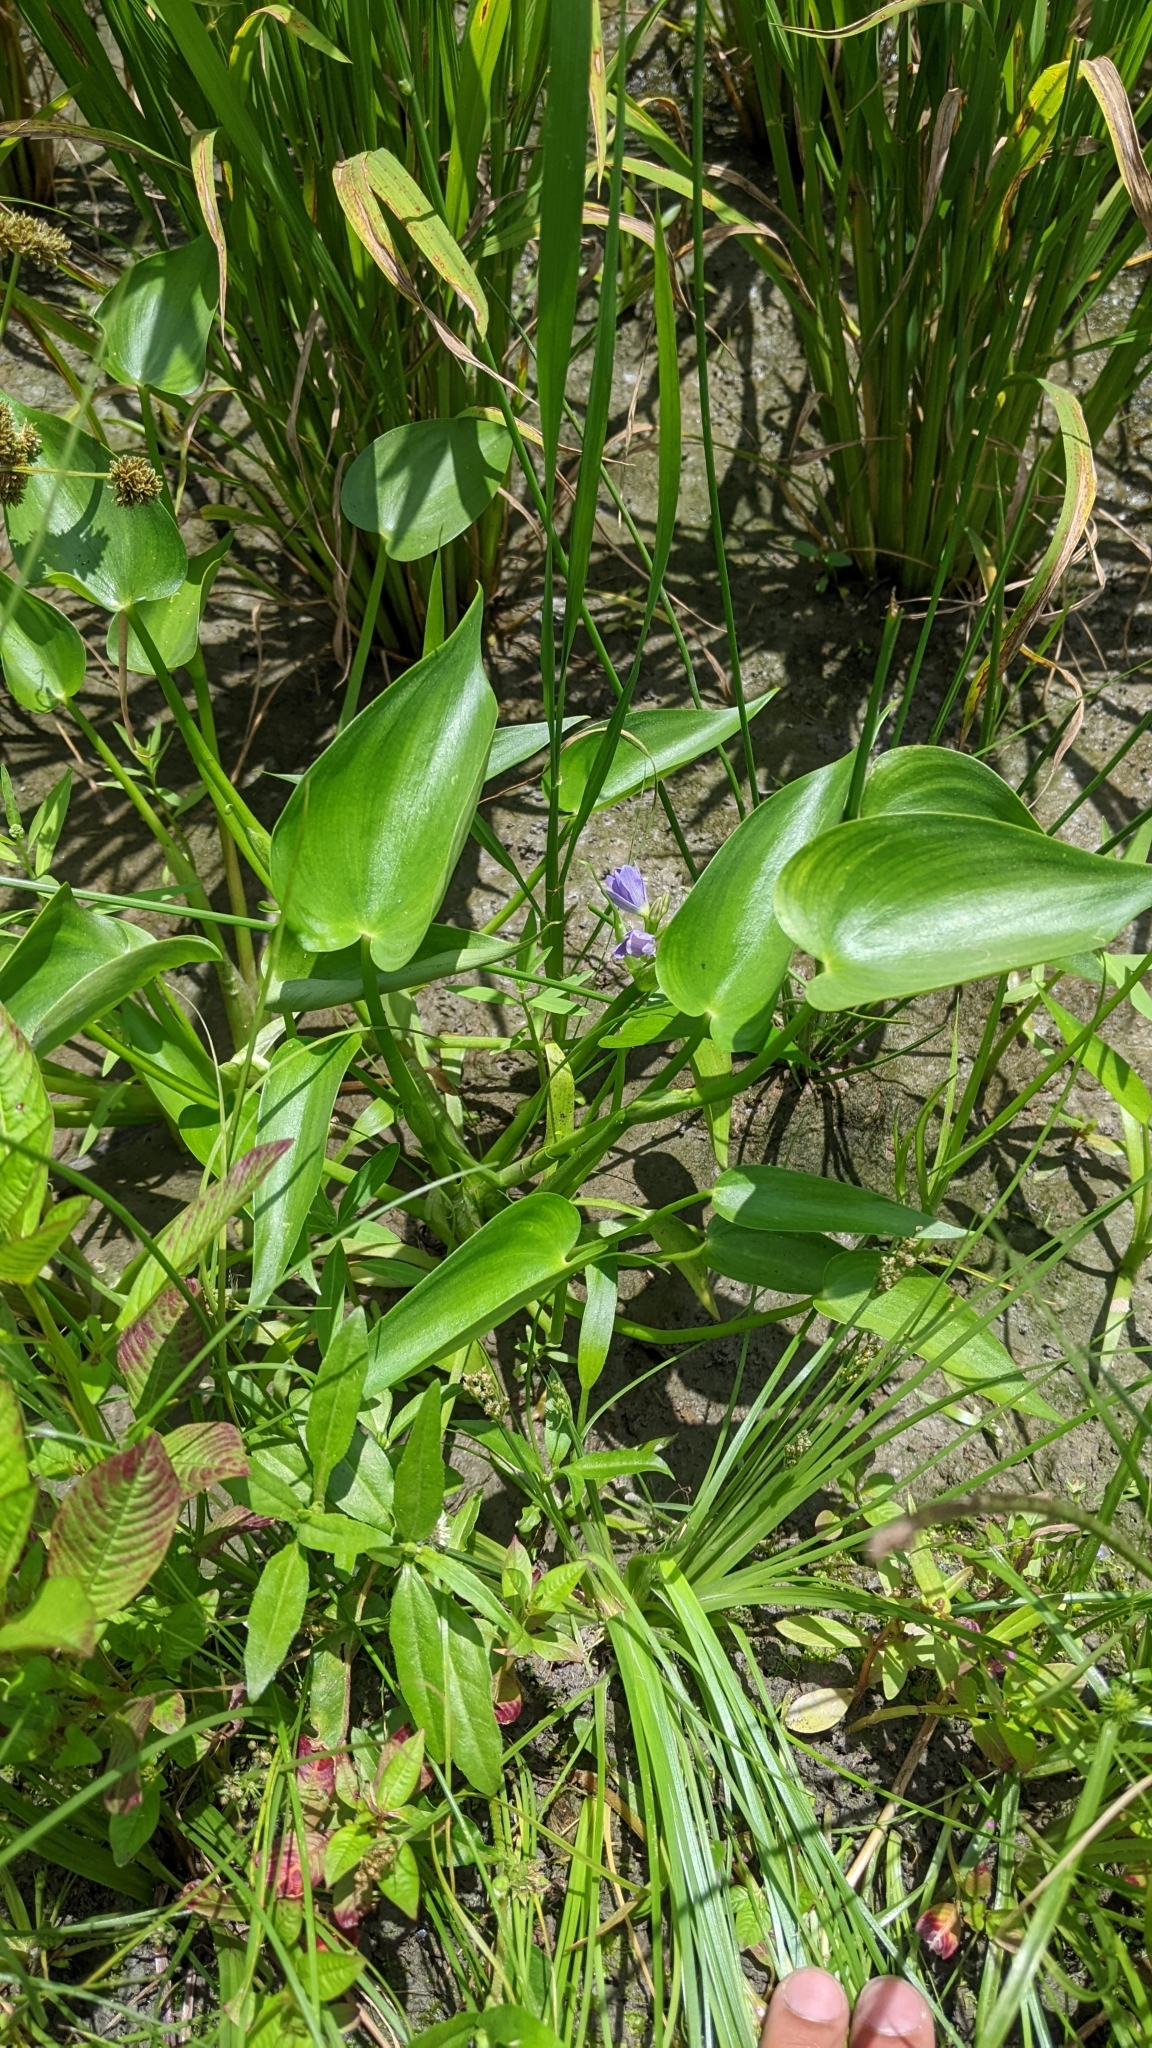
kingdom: Plantae
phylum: Tracheophyta
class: Liliopsida
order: Commelinales
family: Pontederiaceae
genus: Pontederia
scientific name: Pontederia vaginalis
